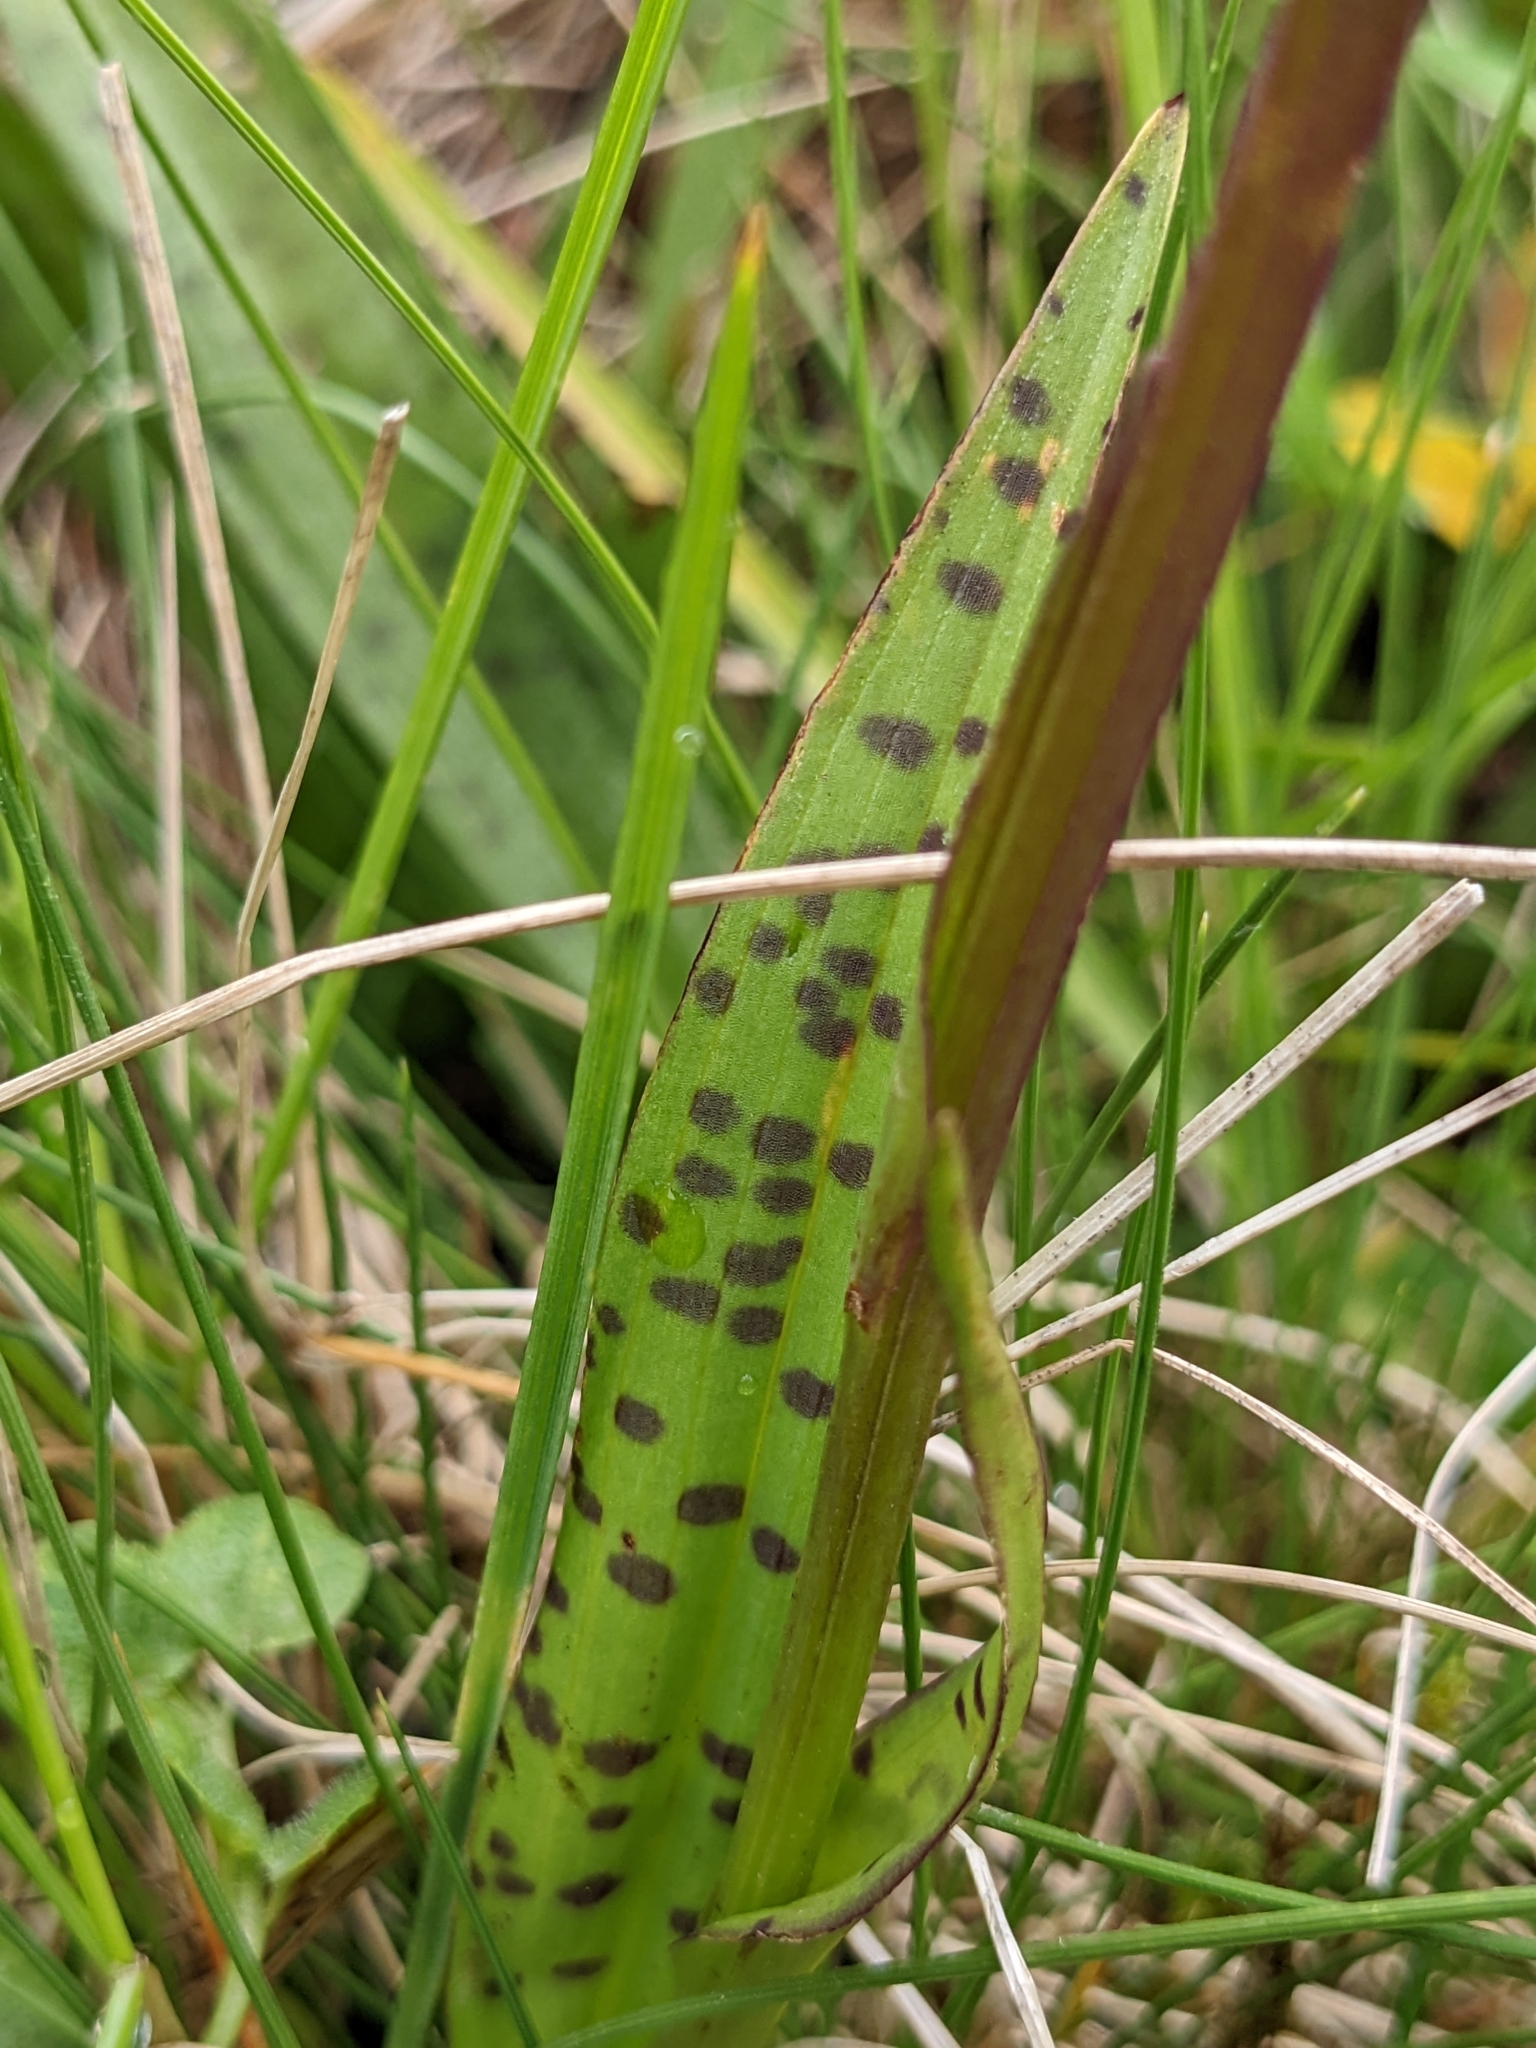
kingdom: Plantae
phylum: Tracheophyta
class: Liliopsida
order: Asparagales
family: Orchidaceae
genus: Dactylorhiza
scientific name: Dactylorhiza maculata
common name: Heath spotted-orchid
